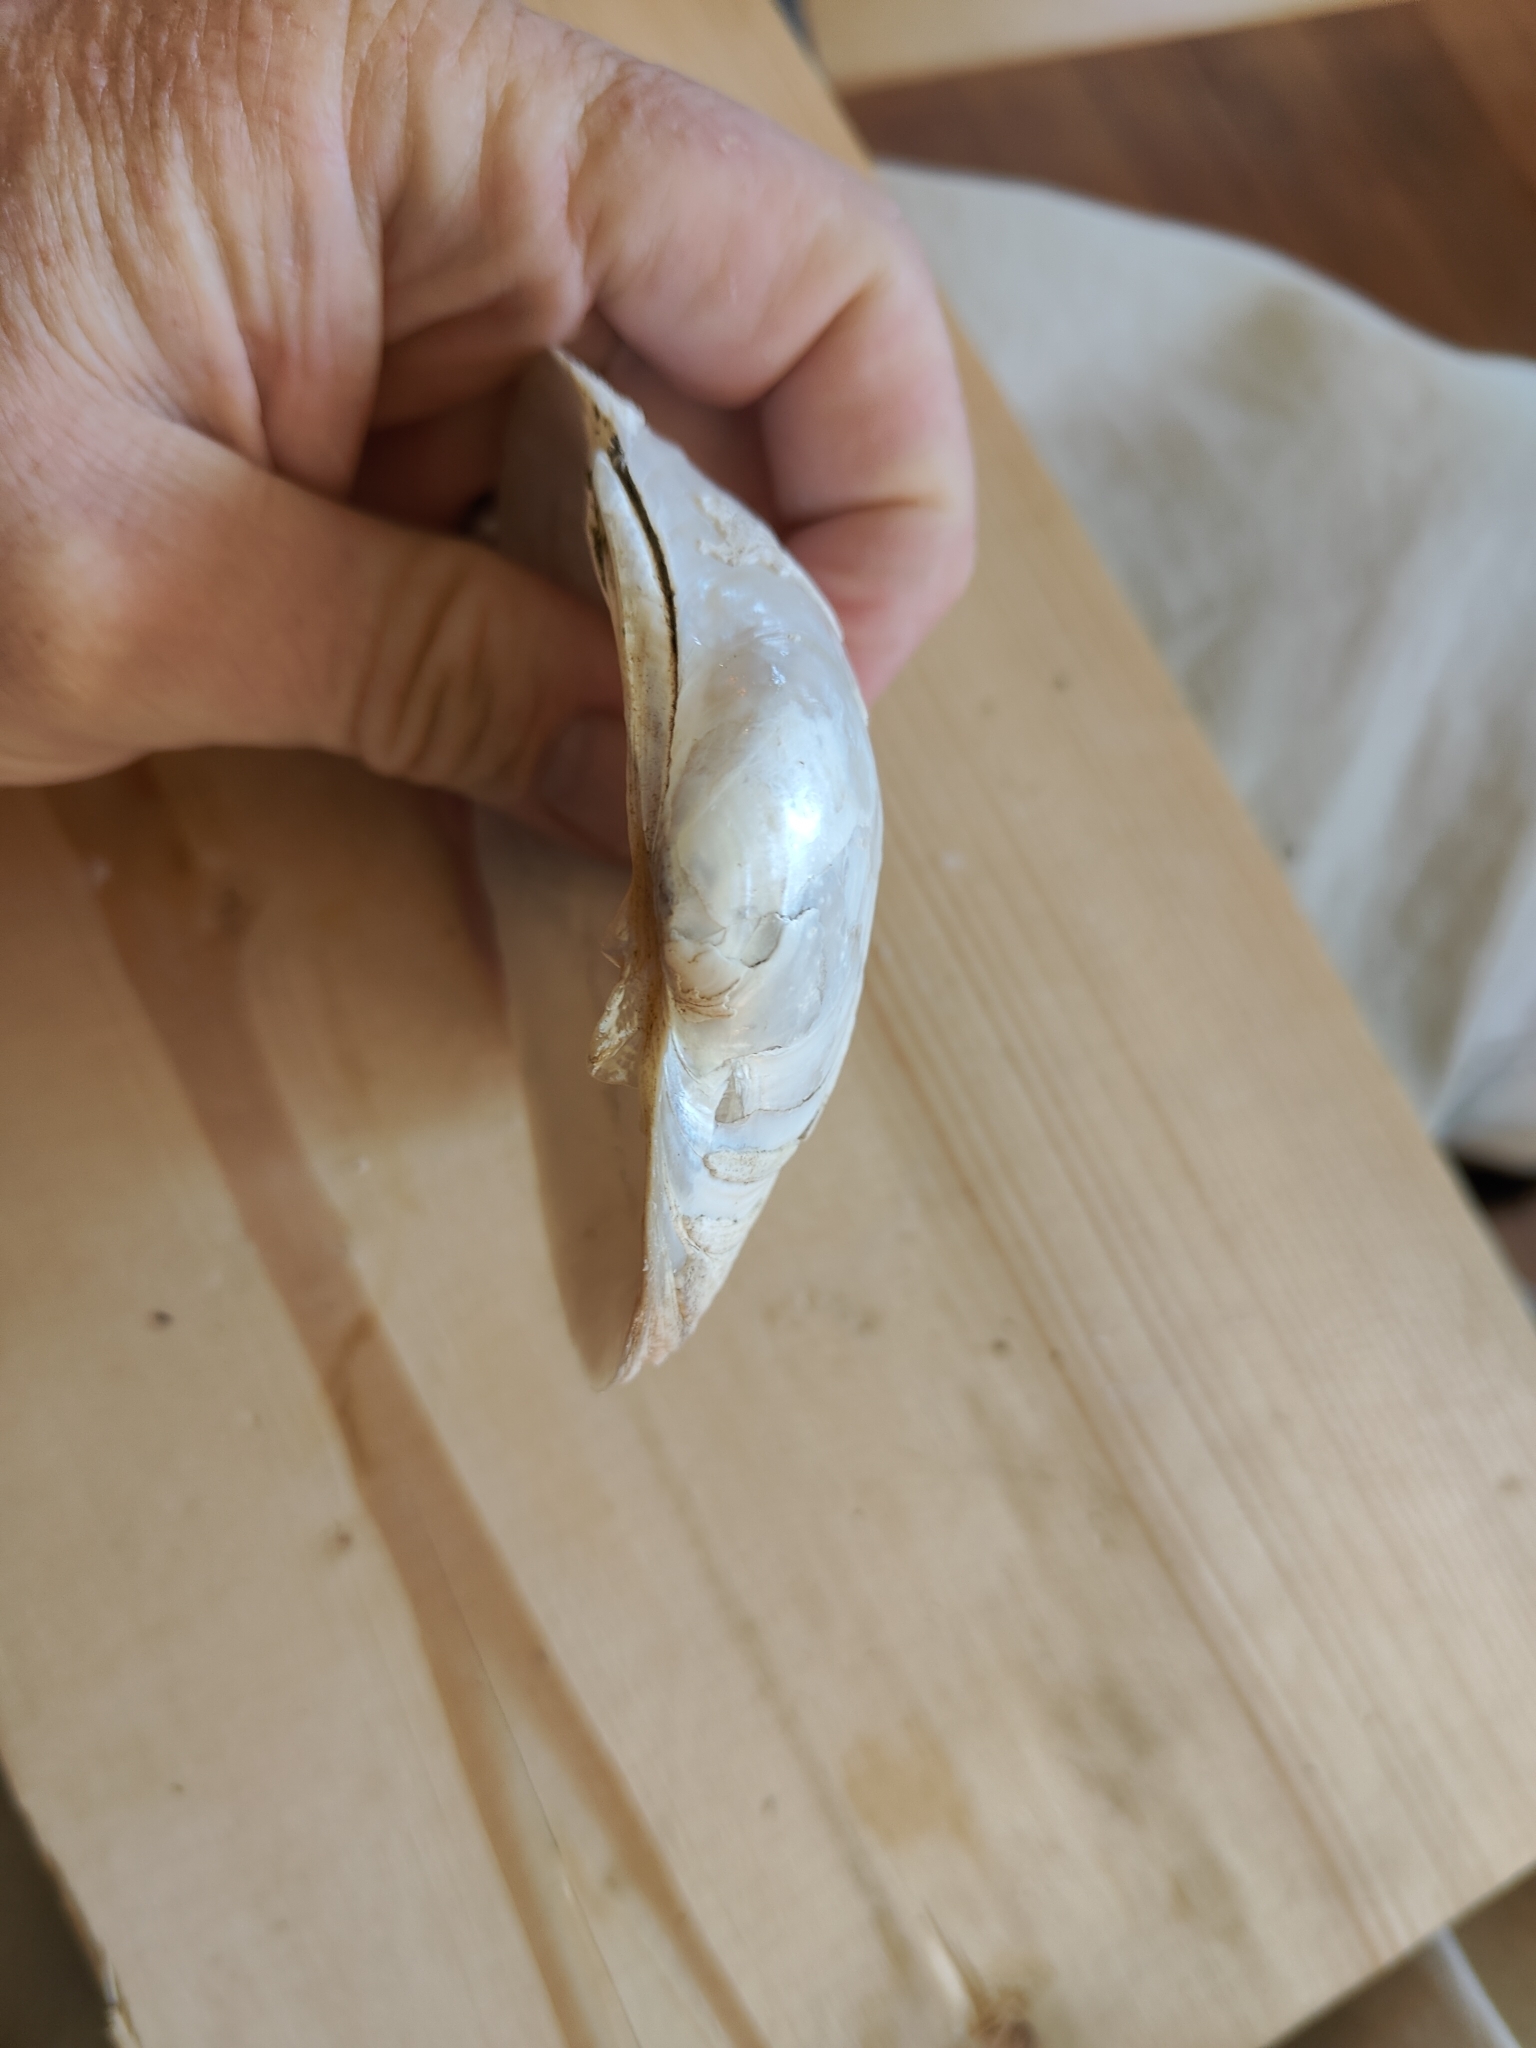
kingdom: Animalia
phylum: Mollusca
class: Bivalvia
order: Unionida
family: Unionidae
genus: Lampsilis
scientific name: Lampsilis cardium
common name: Plain pocketbook
